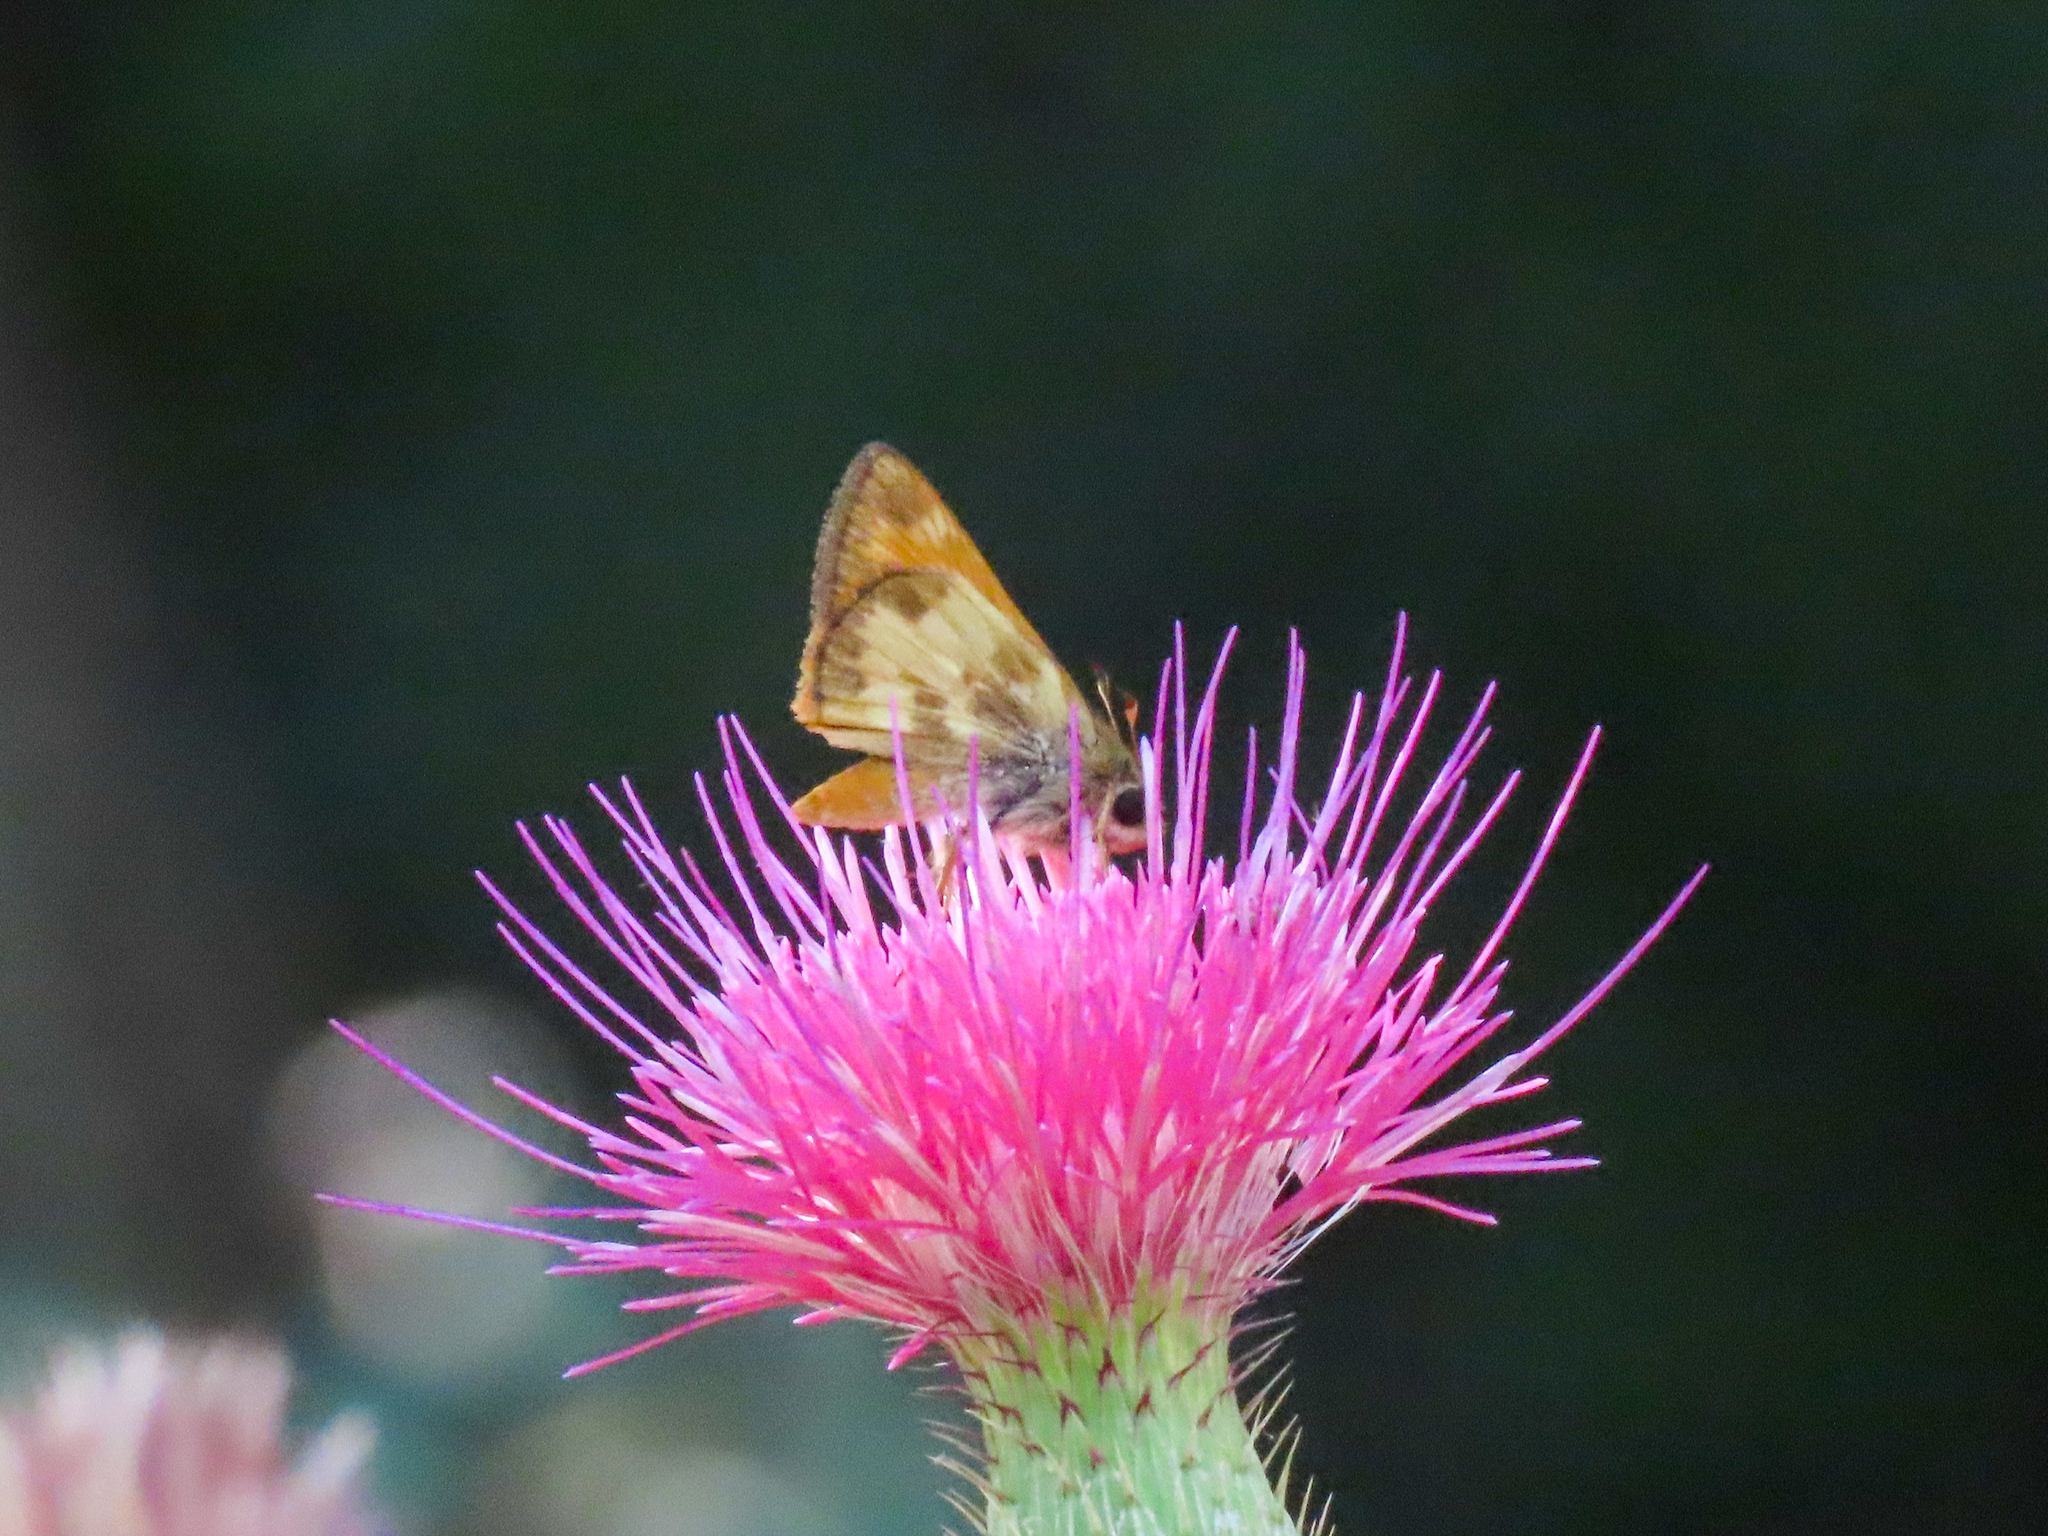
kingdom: Animalia
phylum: Arthropoda
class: Insecta
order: Lepidoptera
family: Hesperiidae
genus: Lon
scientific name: Lon taxiles
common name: Taxiles skipper
